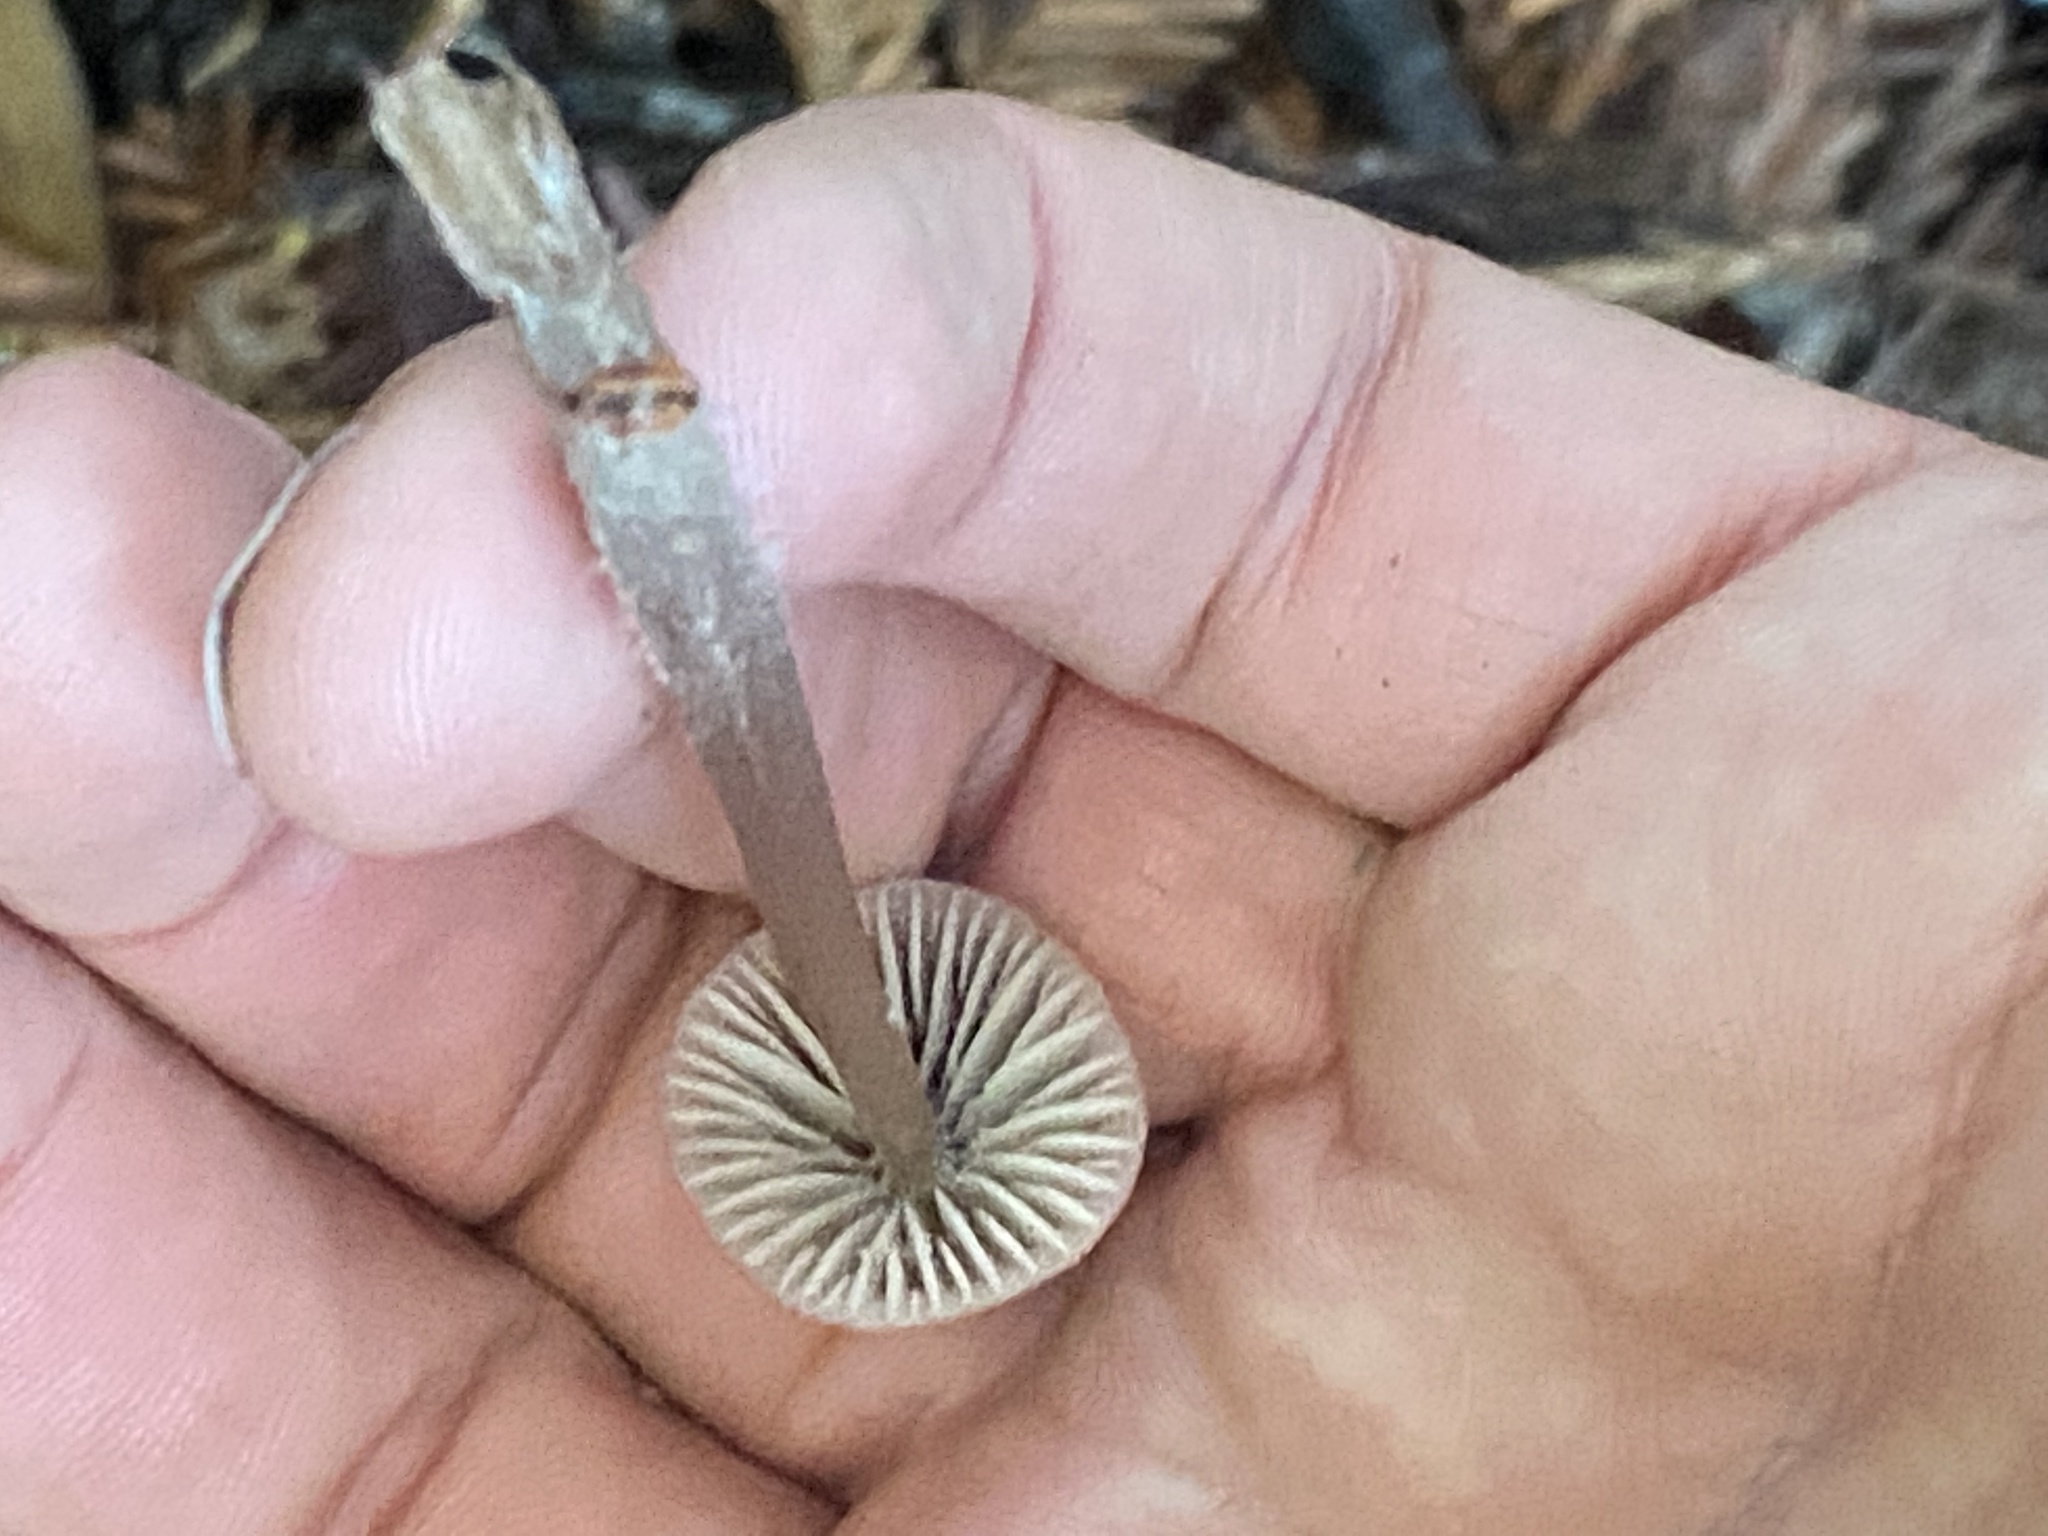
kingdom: Fungi
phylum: Basidiomycota
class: Agaricomycetes
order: Agaricales
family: Mycenaceae
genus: Mycena
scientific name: Mycena leptocephala
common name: Nitrous bonnet
